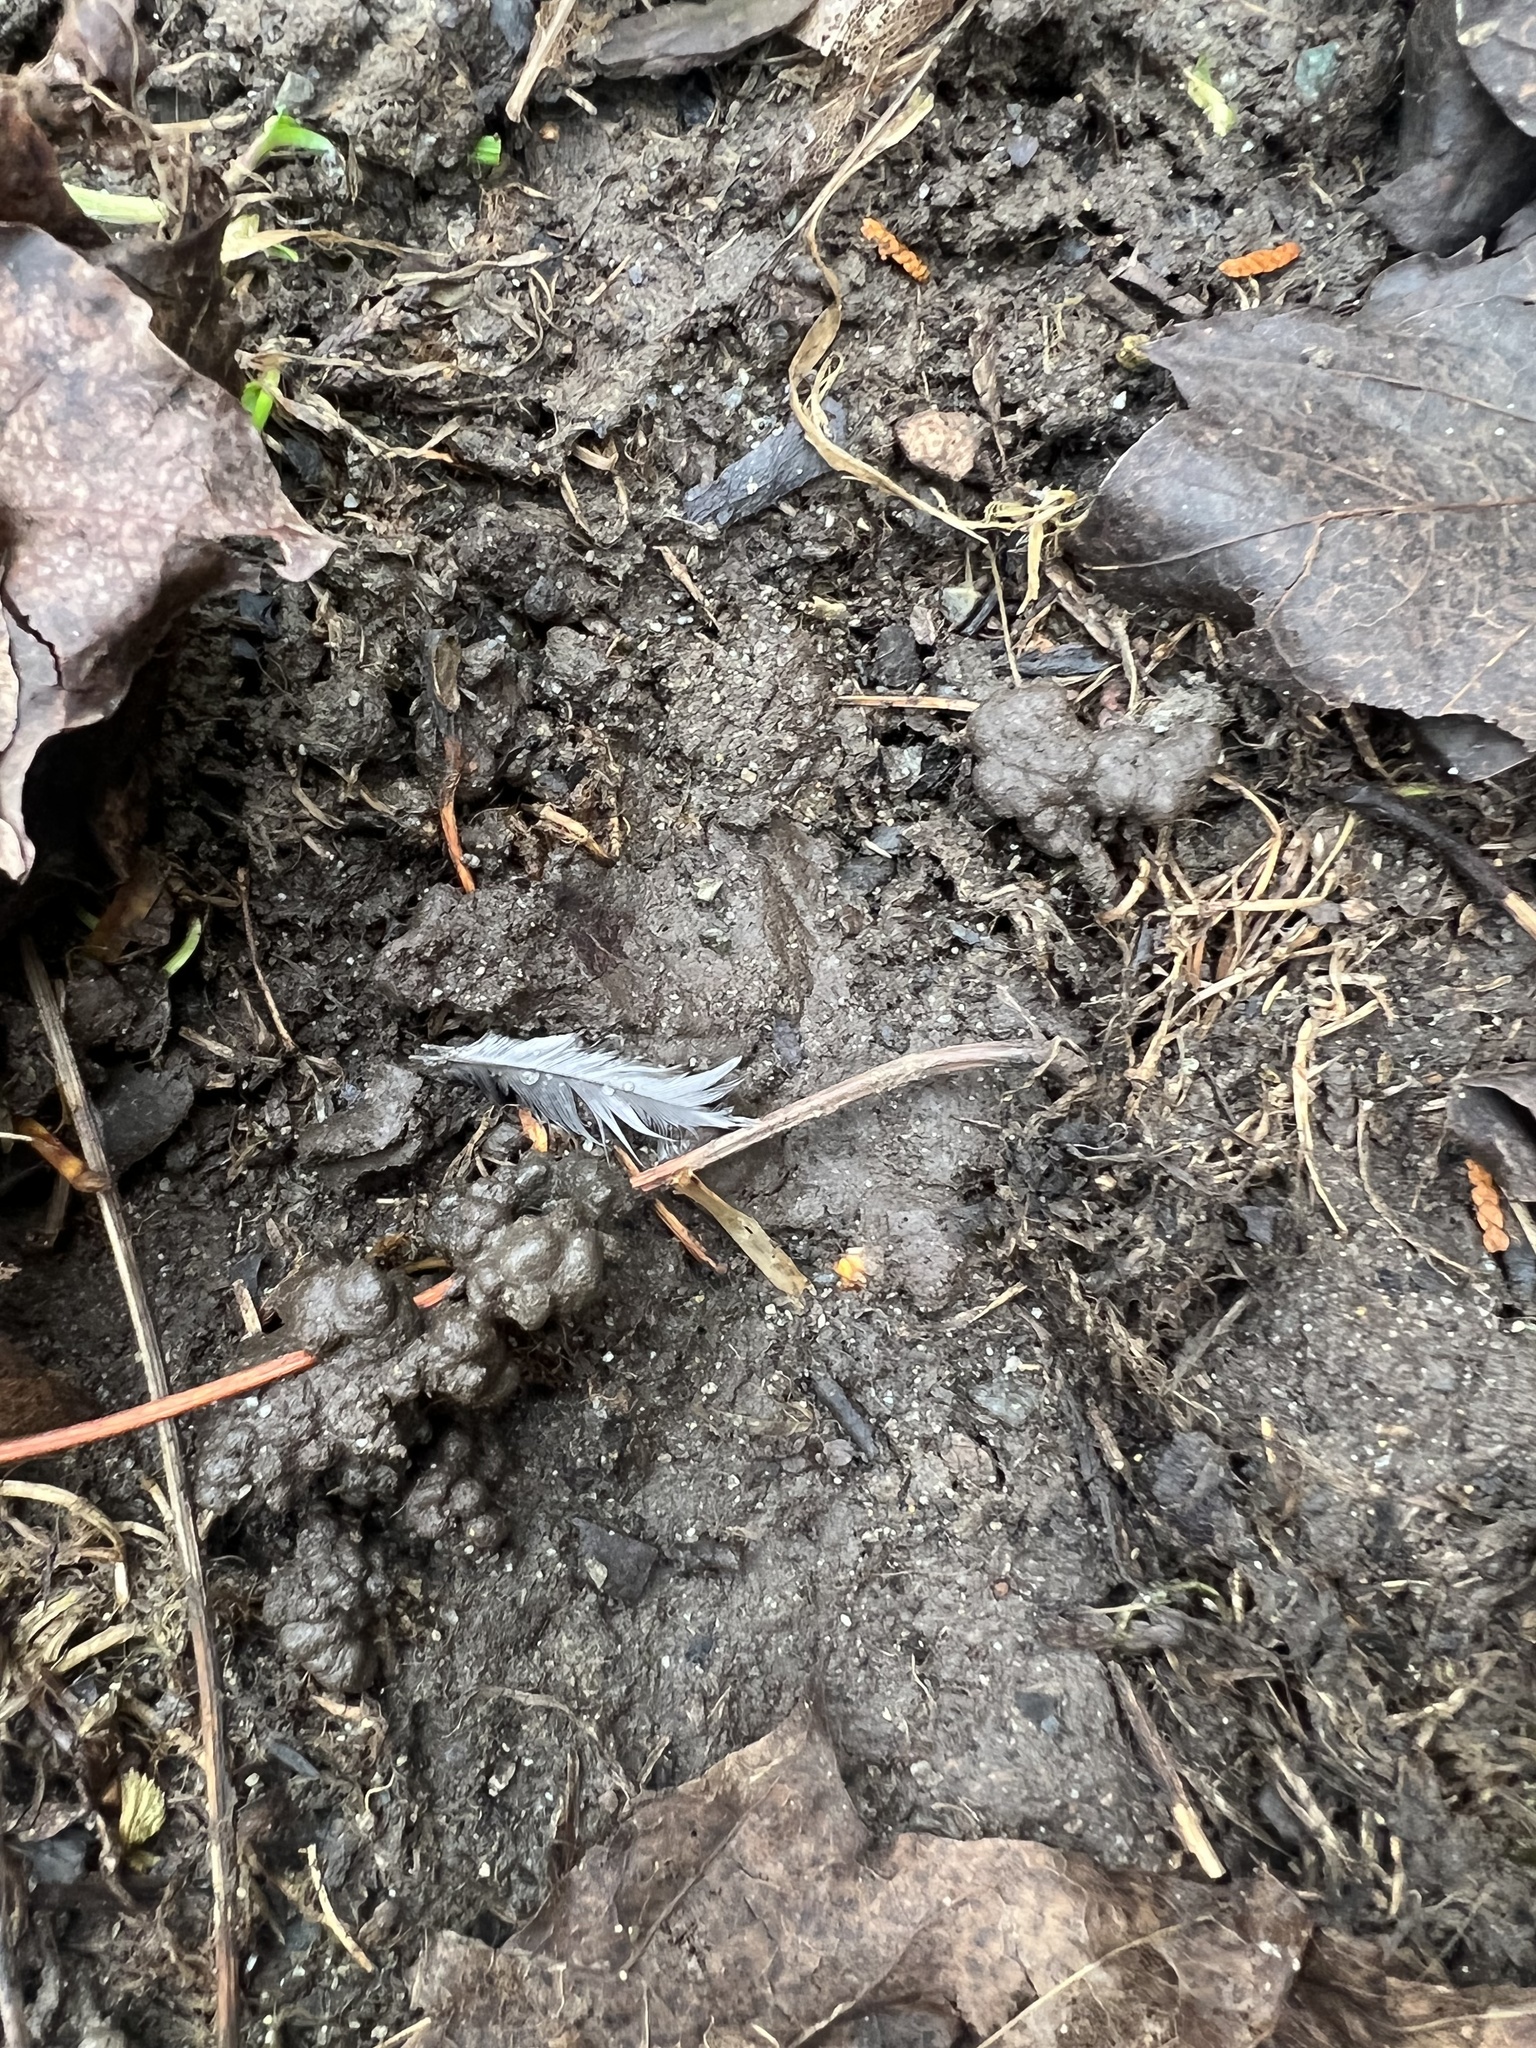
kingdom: Animalia
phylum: Chordata
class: Aves
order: Passeriformes
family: Passerellidae
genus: Junco
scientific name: Junco hyemalis
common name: Dark-eyed junco
